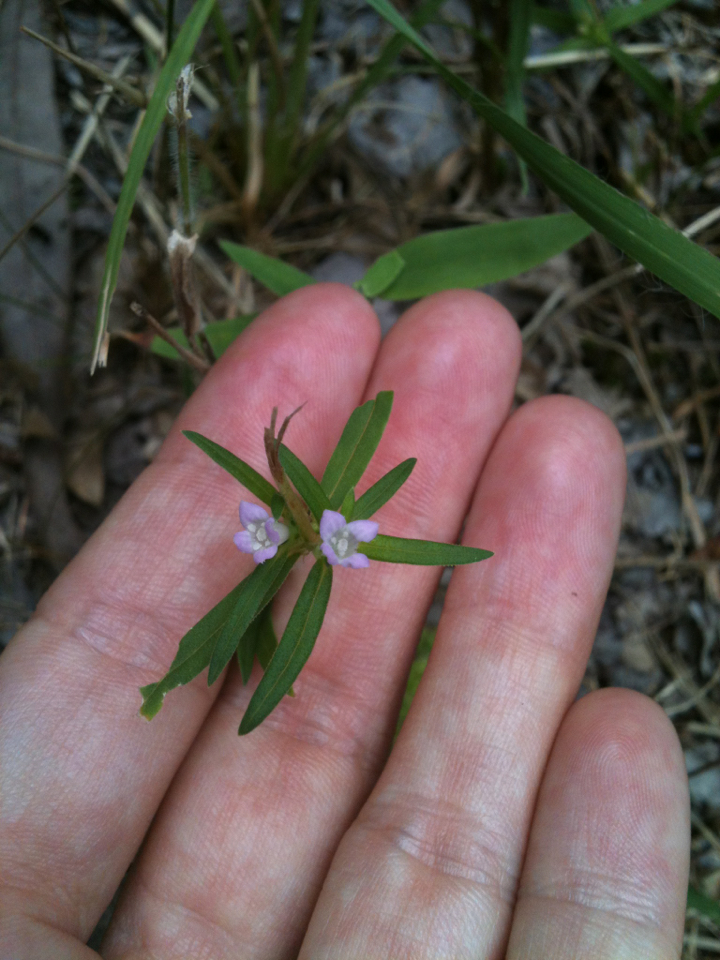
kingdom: Plantae
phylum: Tracheophyta
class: Magnoliopsida
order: Gentianales
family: Rubiaceae
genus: Hexasepalum
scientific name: Hexasepalum teres
